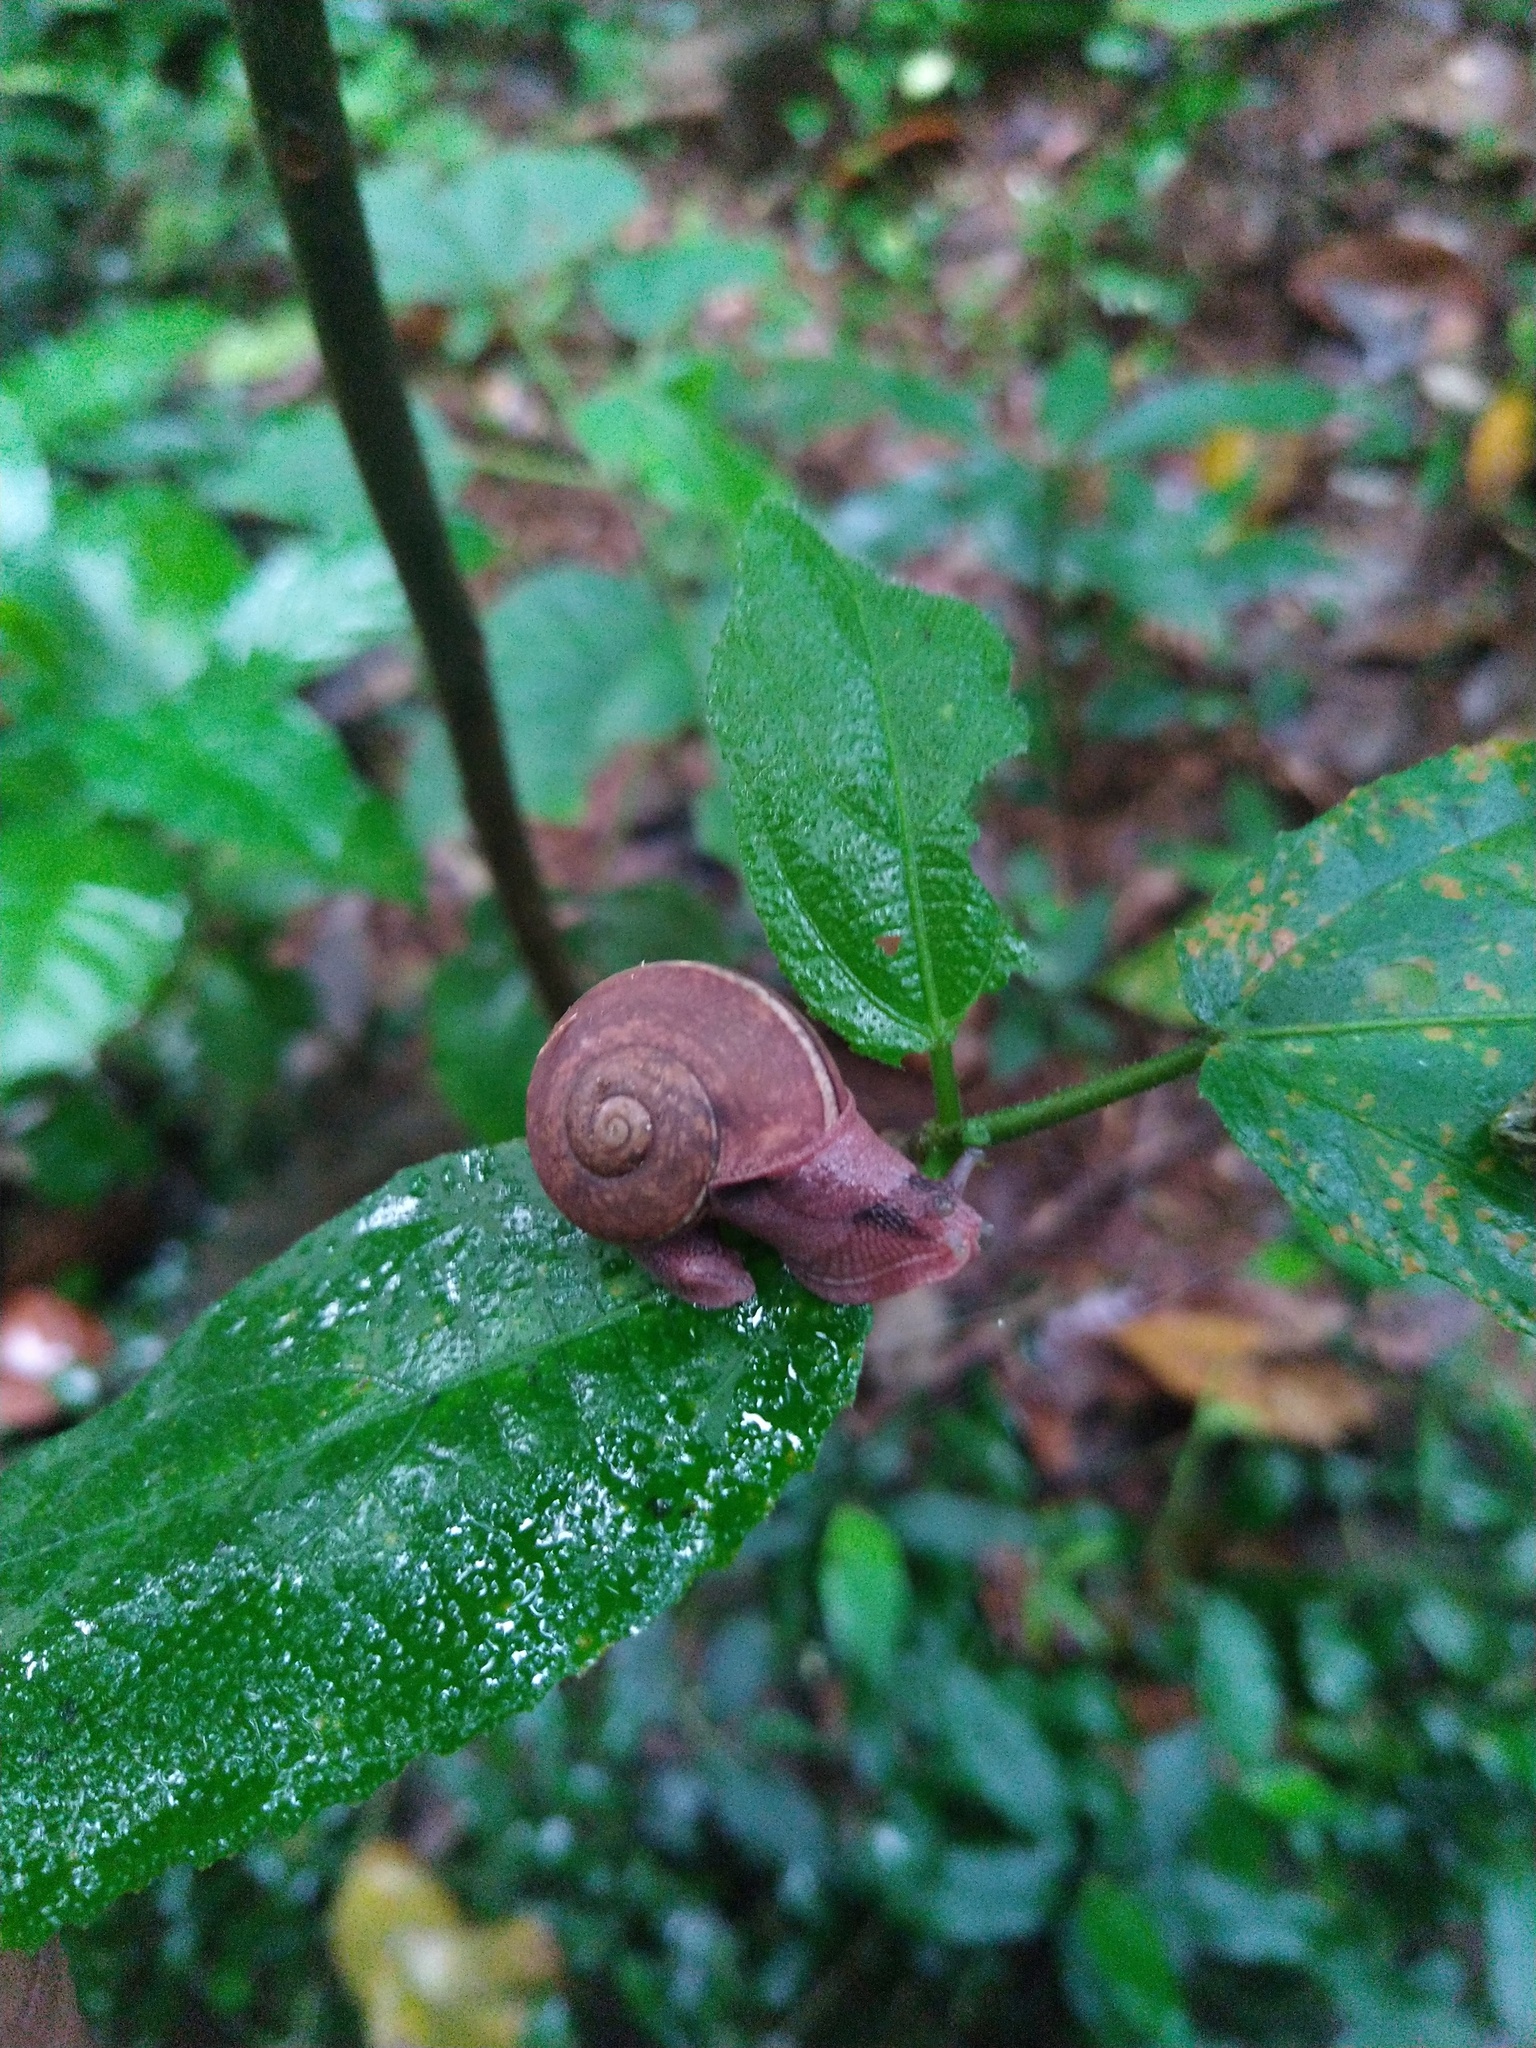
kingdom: Animalia
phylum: Mollusca
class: Gastropoda
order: Stylommatophora
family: Ariophantidae
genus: Ariophanta
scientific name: Ariophanta exilis
